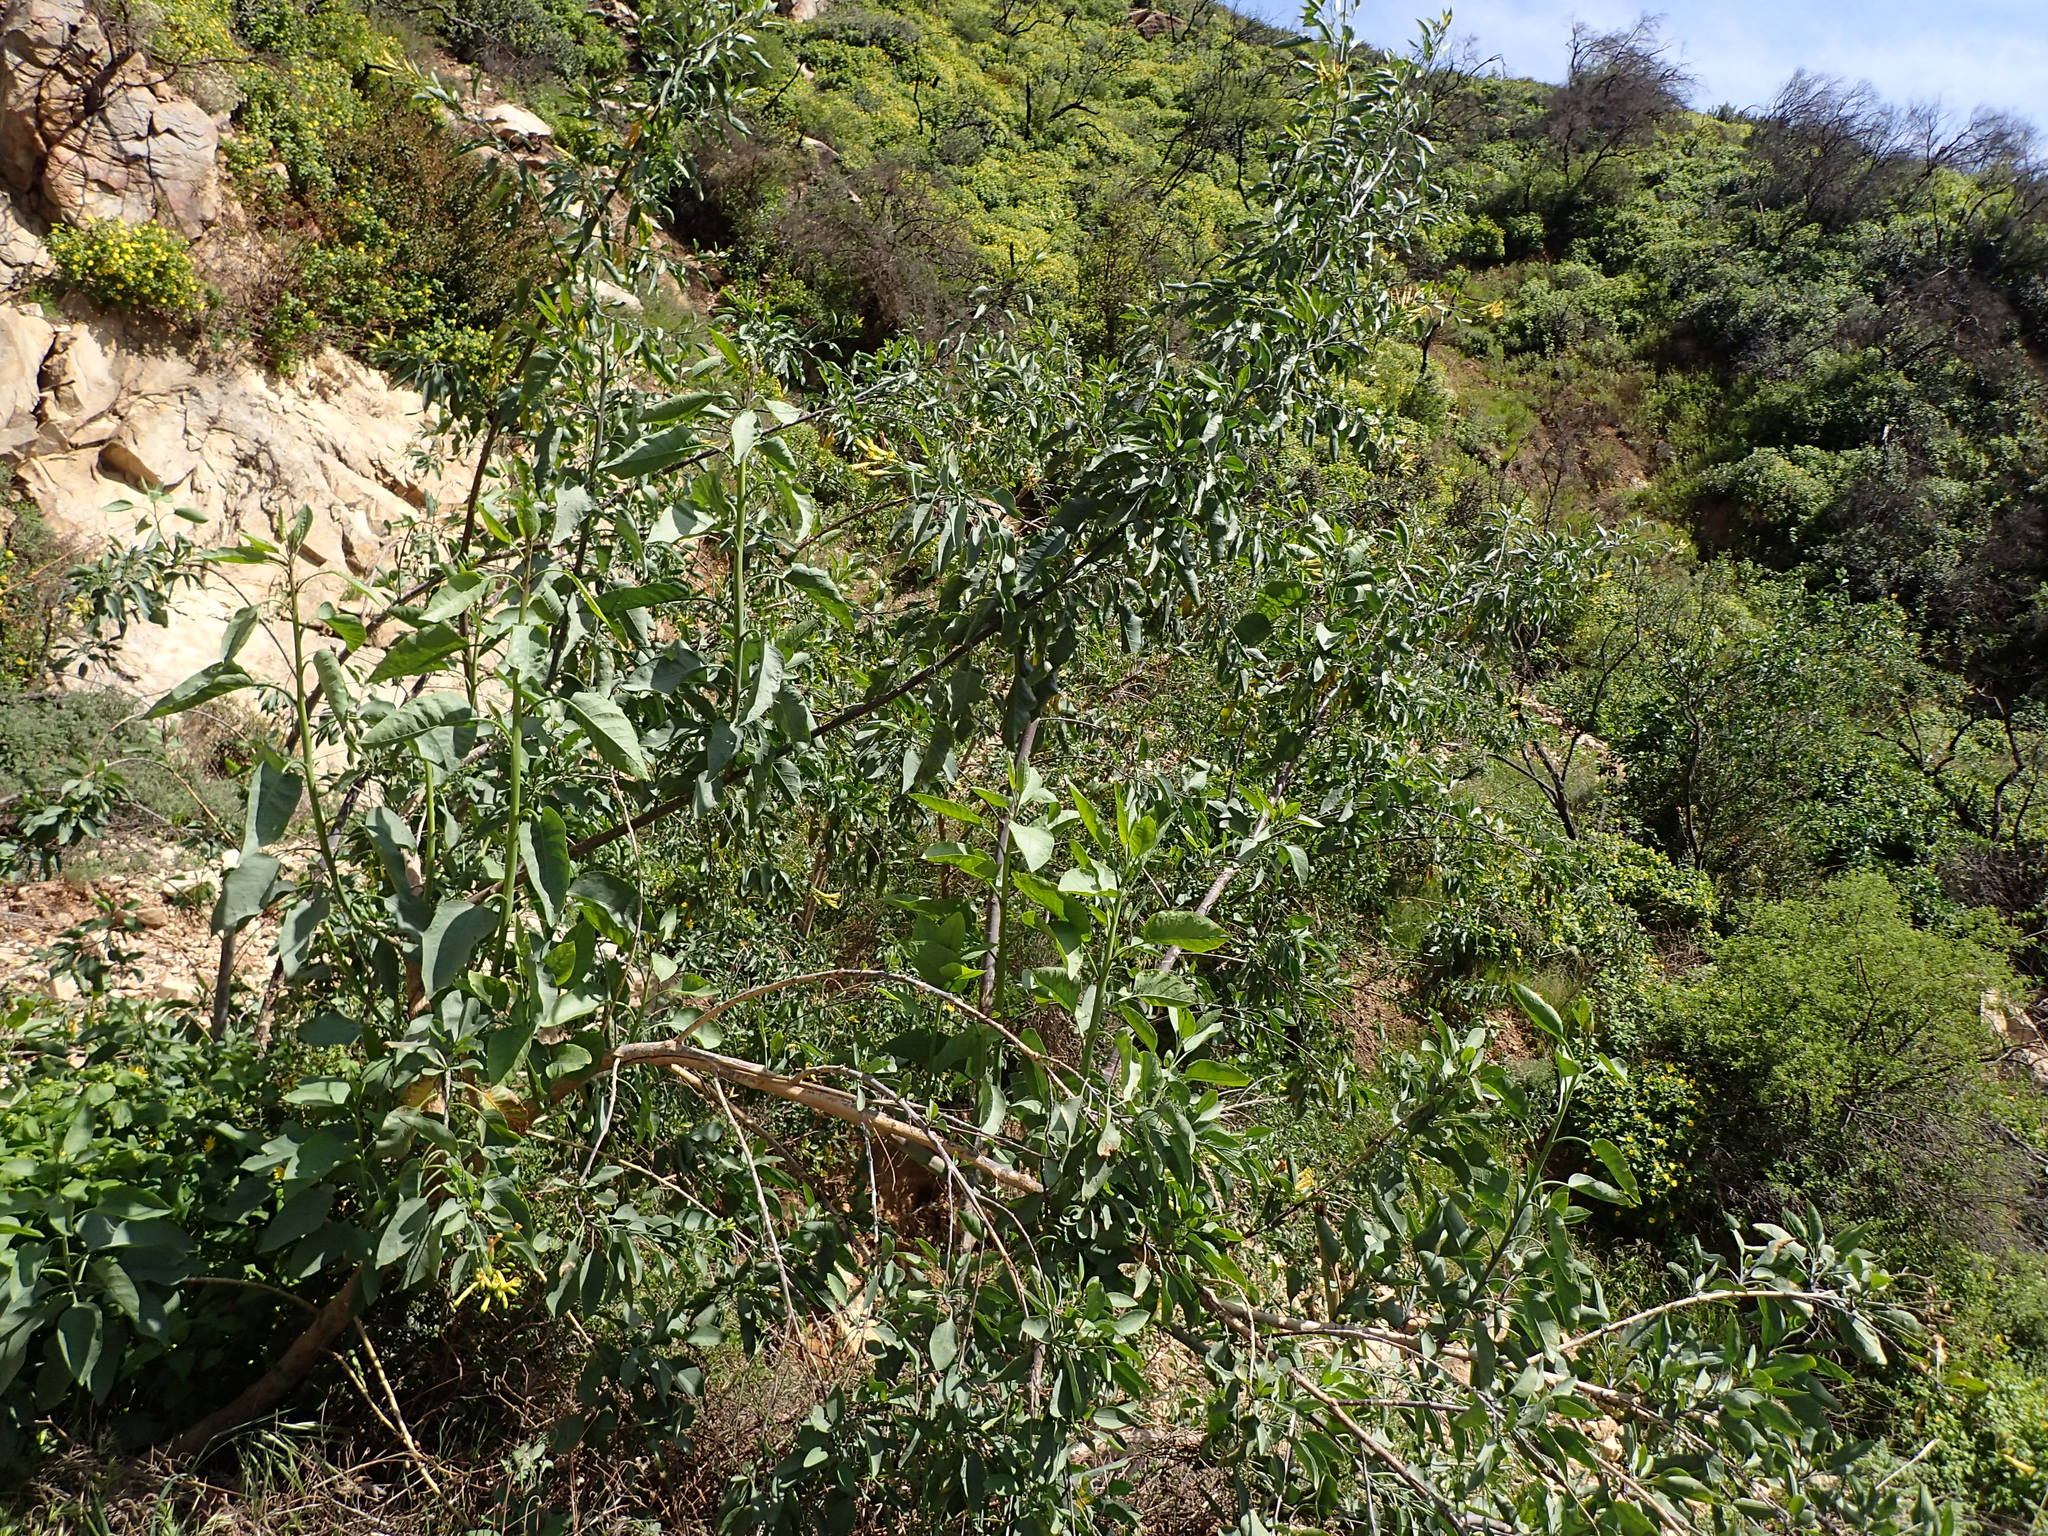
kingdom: Plantae
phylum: Tracheophyta
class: Magnoliopsida
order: Solanales
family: Solanaceae
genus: Nicotiana
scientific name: Nicotiana glauca
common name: Tree tobacco
